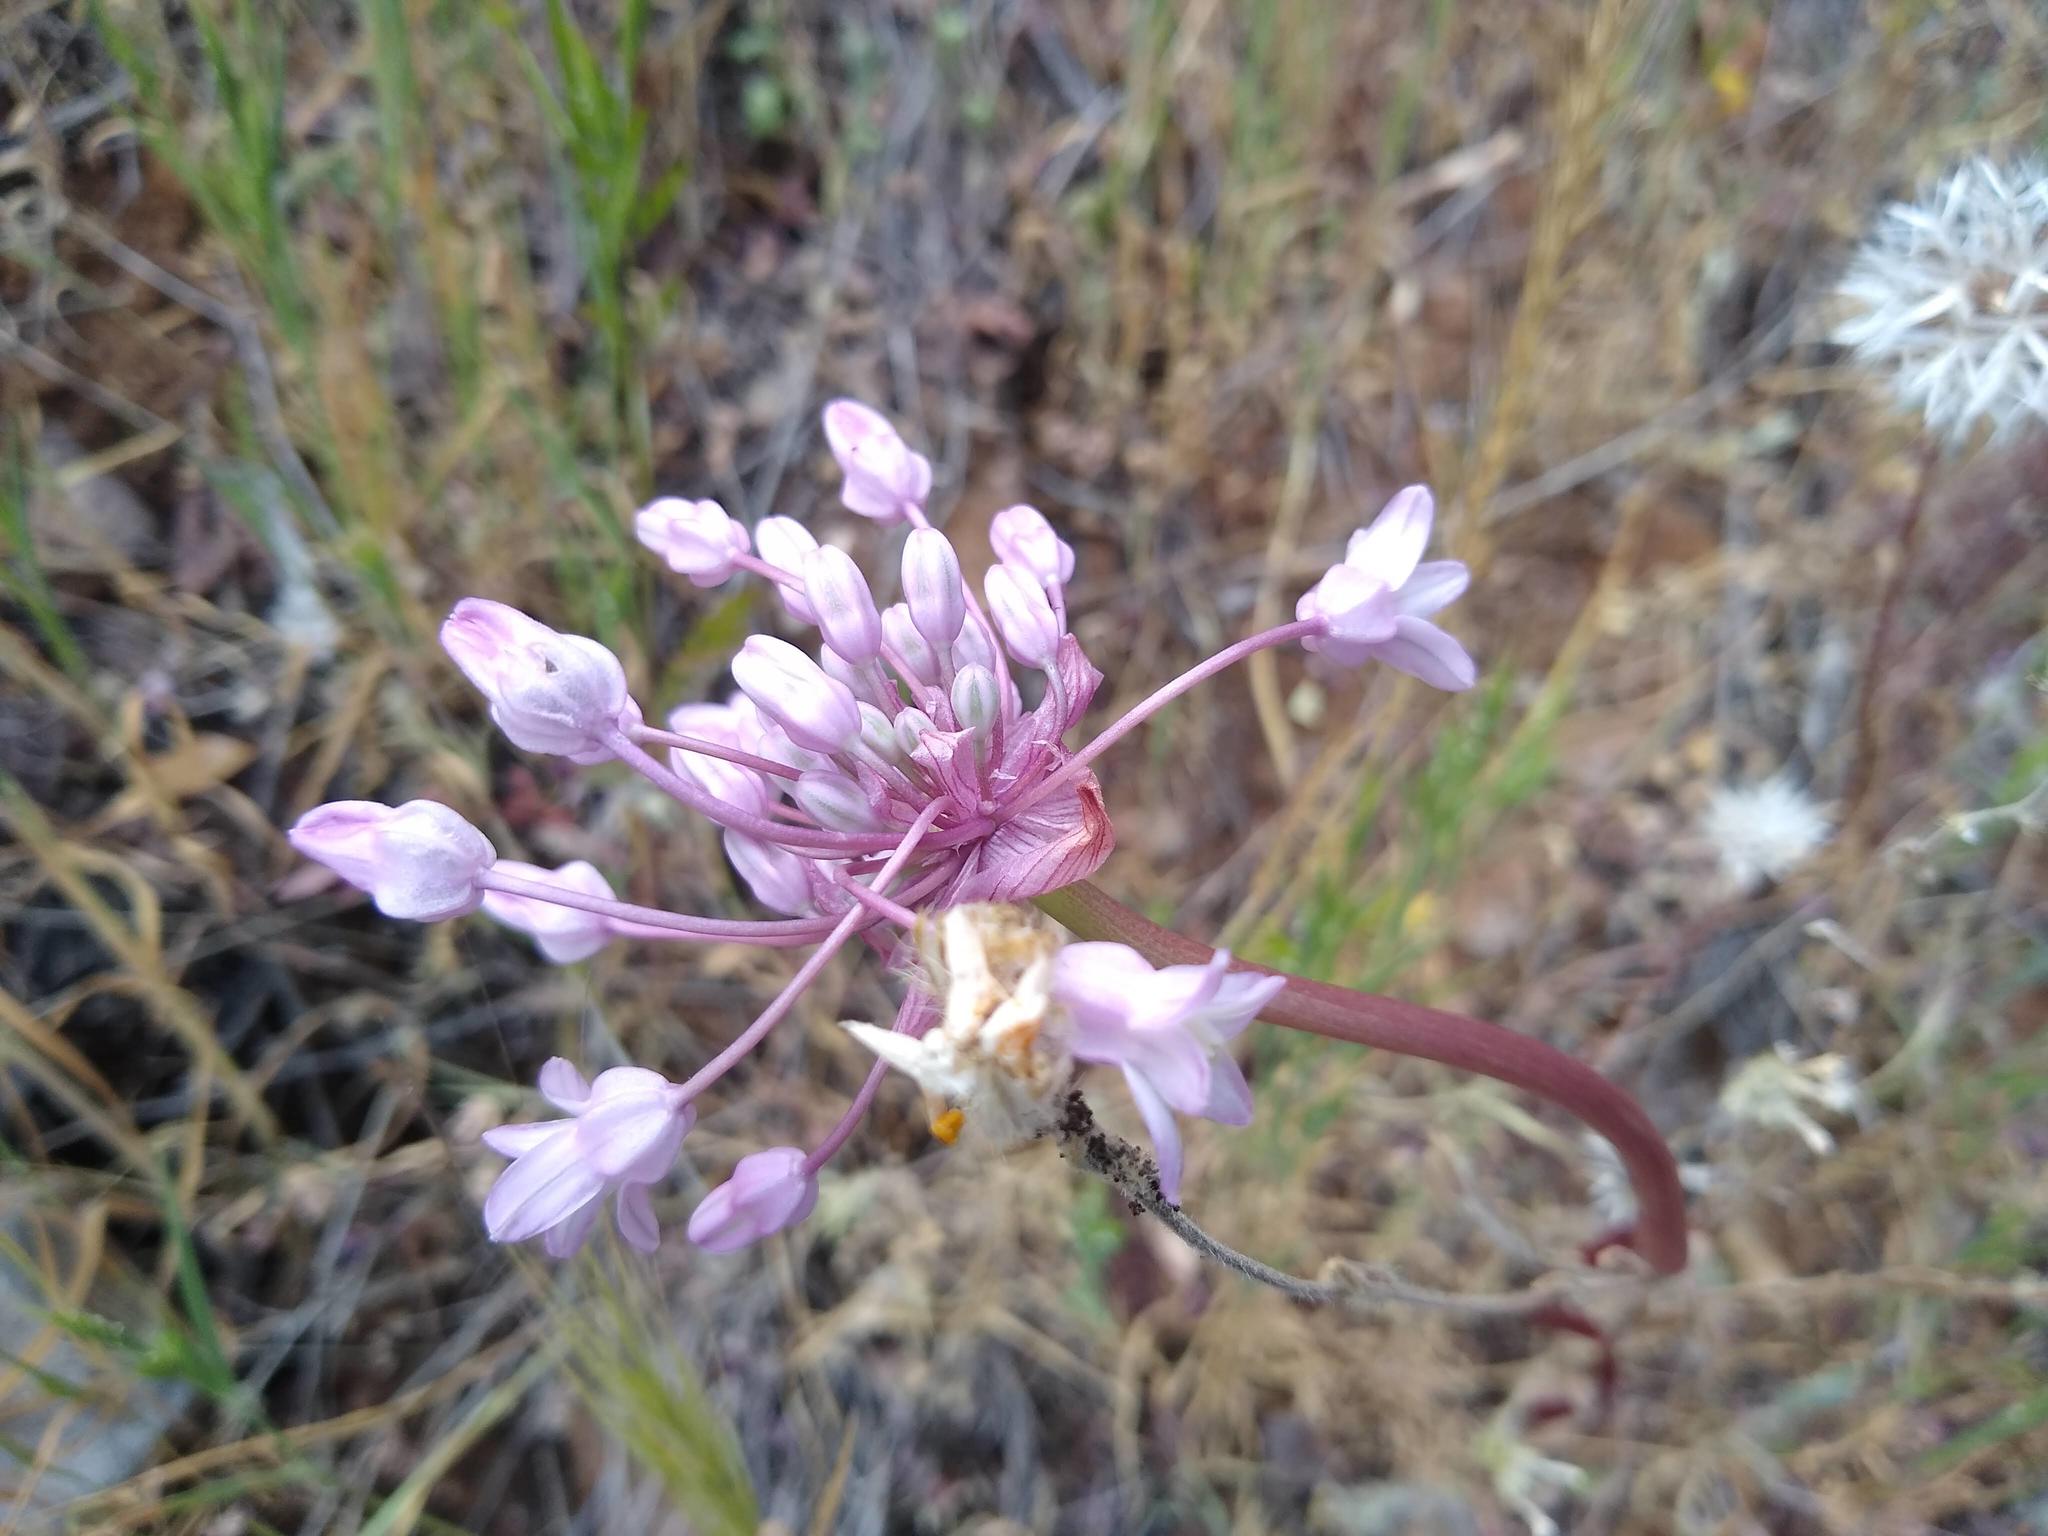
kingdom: Plantae
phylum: Tracheophyta
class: Liliopsida
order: Asparagales
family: Asparagaceae
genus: Dichelostemma
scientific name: Dichelostemma volubile
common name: Trining brodiaea
